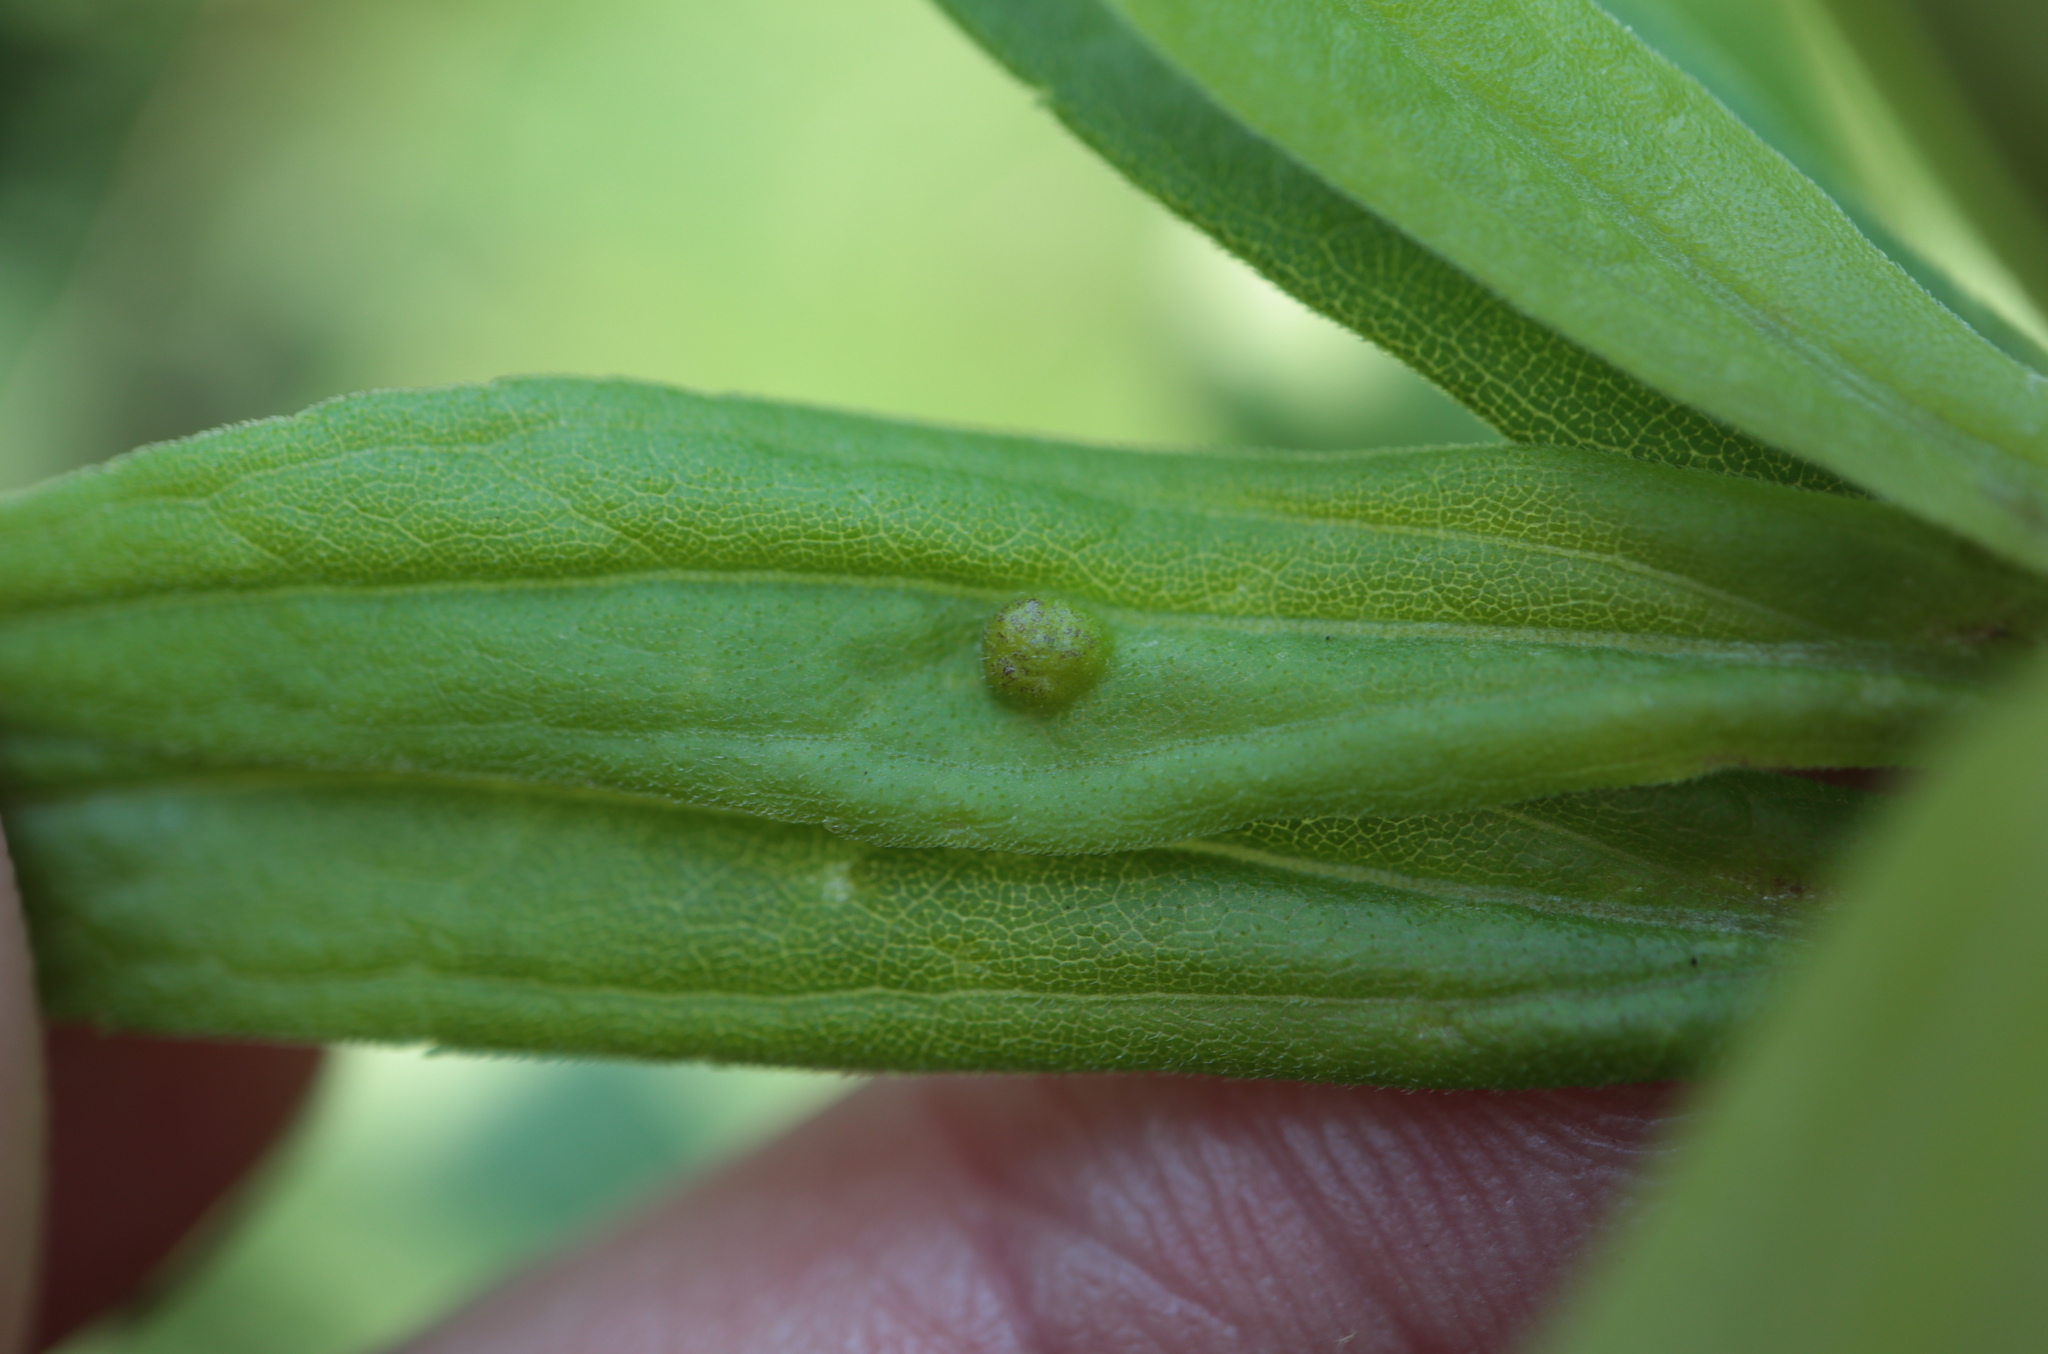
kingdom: Animalia
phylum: Arthropoda
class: Insecta
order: Diptera
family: Cecidomyiidae
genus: Asphondylia
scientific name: Asphondylia solidaginis
